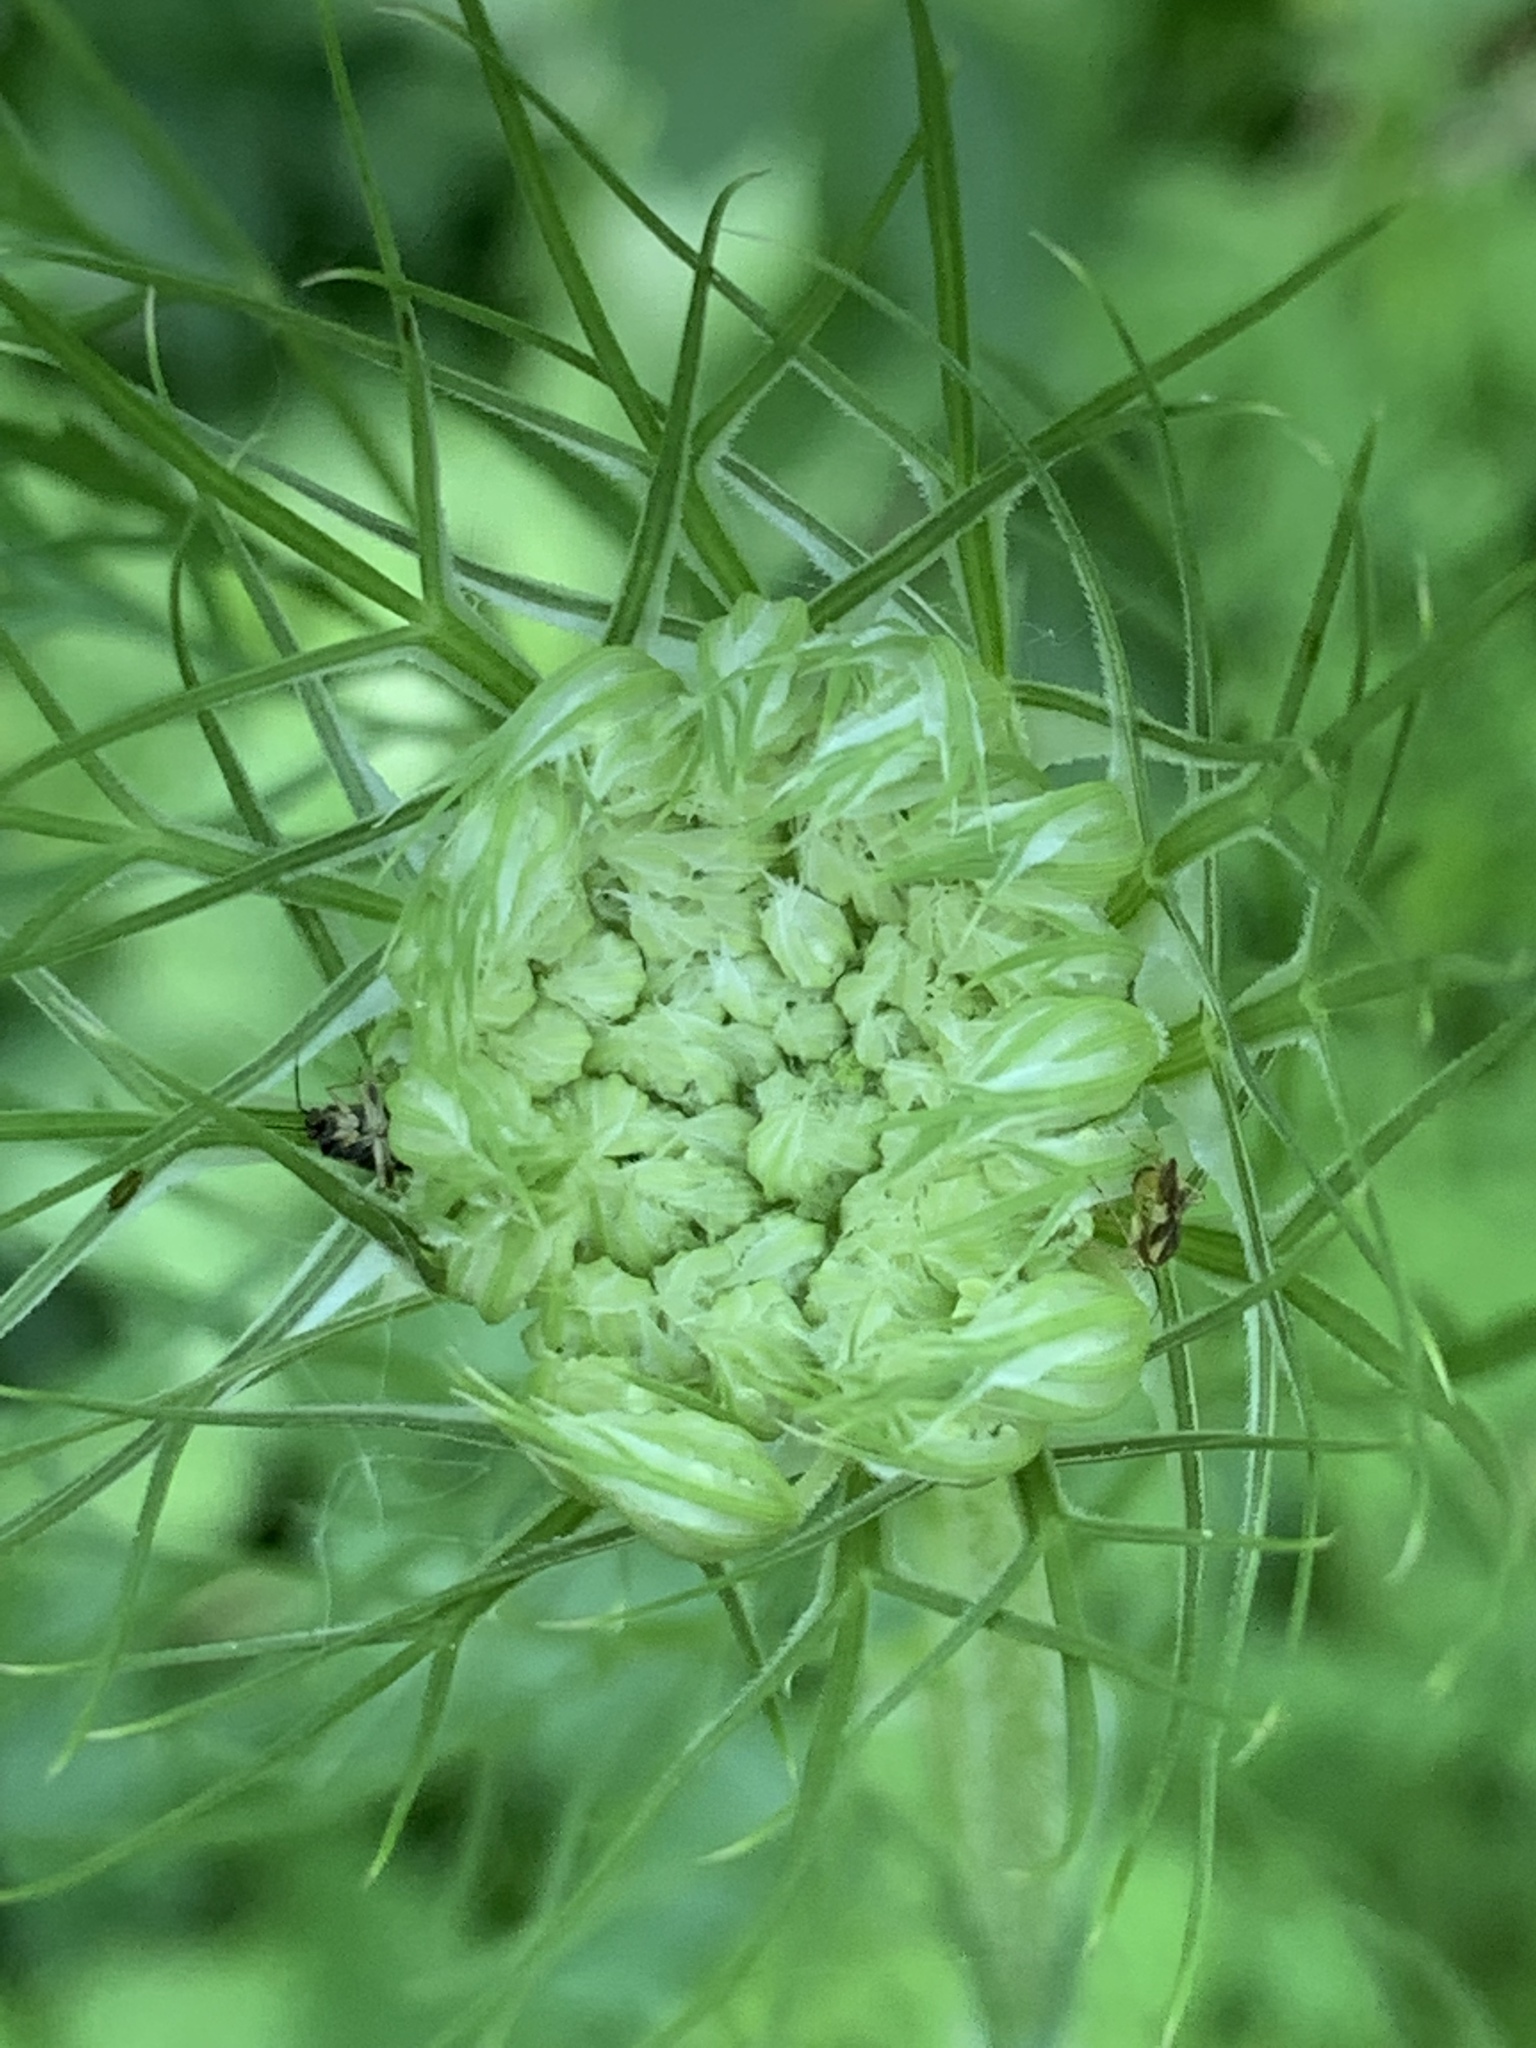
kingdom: Plantae
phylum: Tracheophyta
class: Magnoliopsida
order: Apiales
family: Apiaceae
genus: Daucus
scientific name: Daucus carota
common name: Wild carrot
